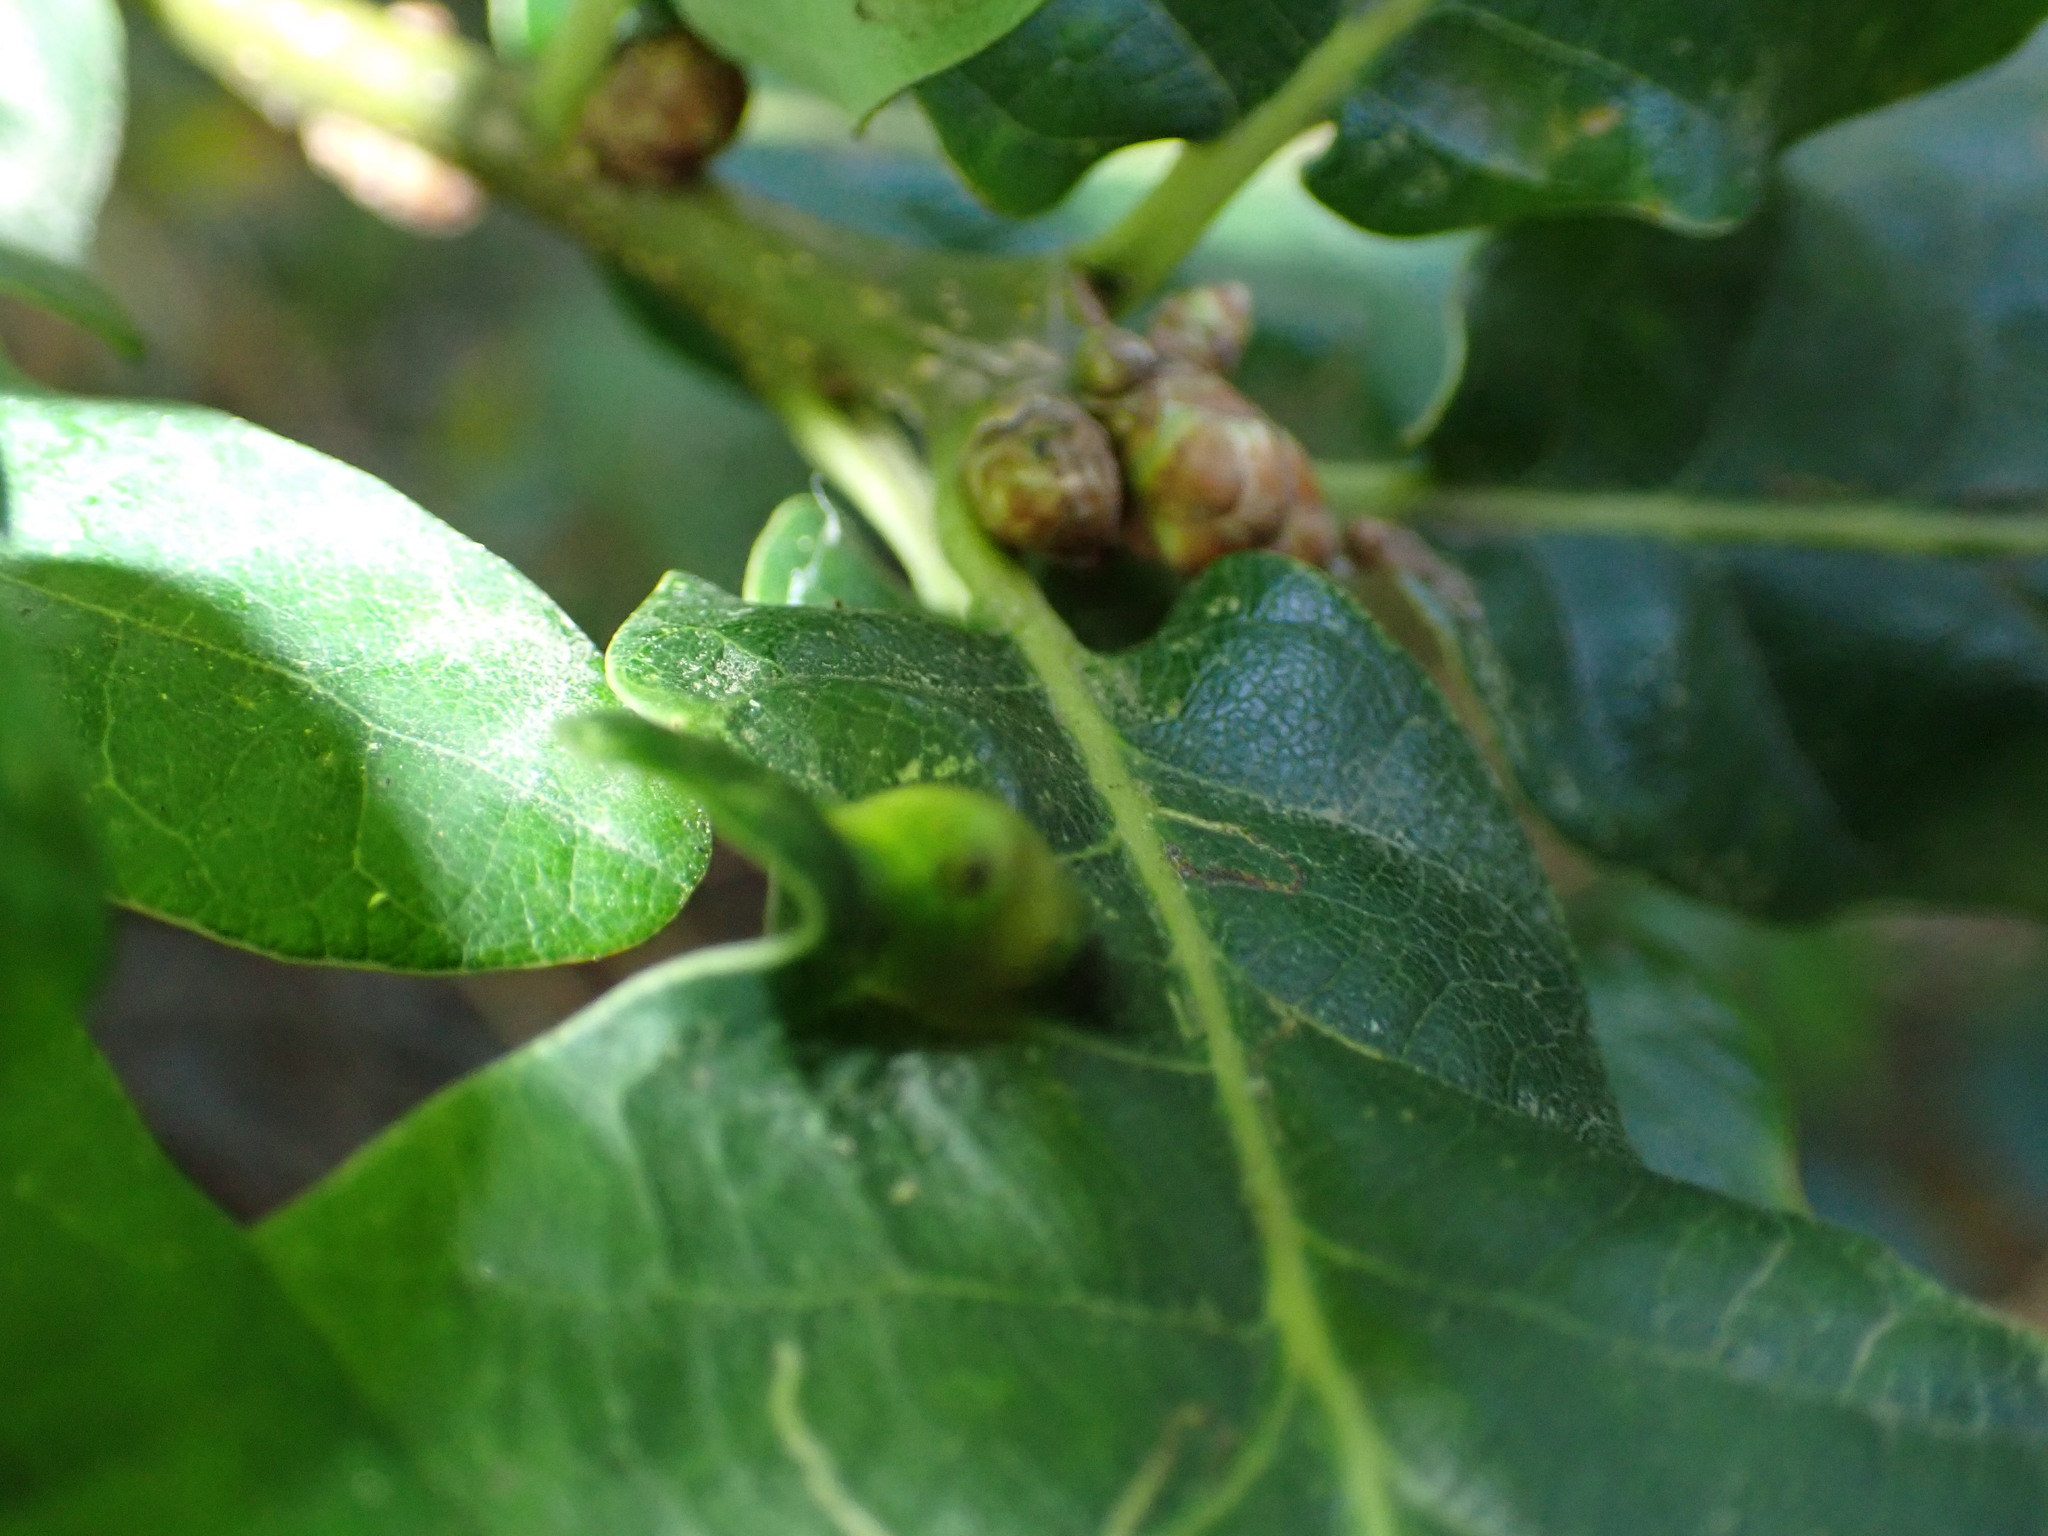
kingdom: Animalia
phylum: Arthropoda
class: Insecta
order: Hymenoptera
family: Cynipidae
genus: Andricus
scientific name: Andricus curvator
